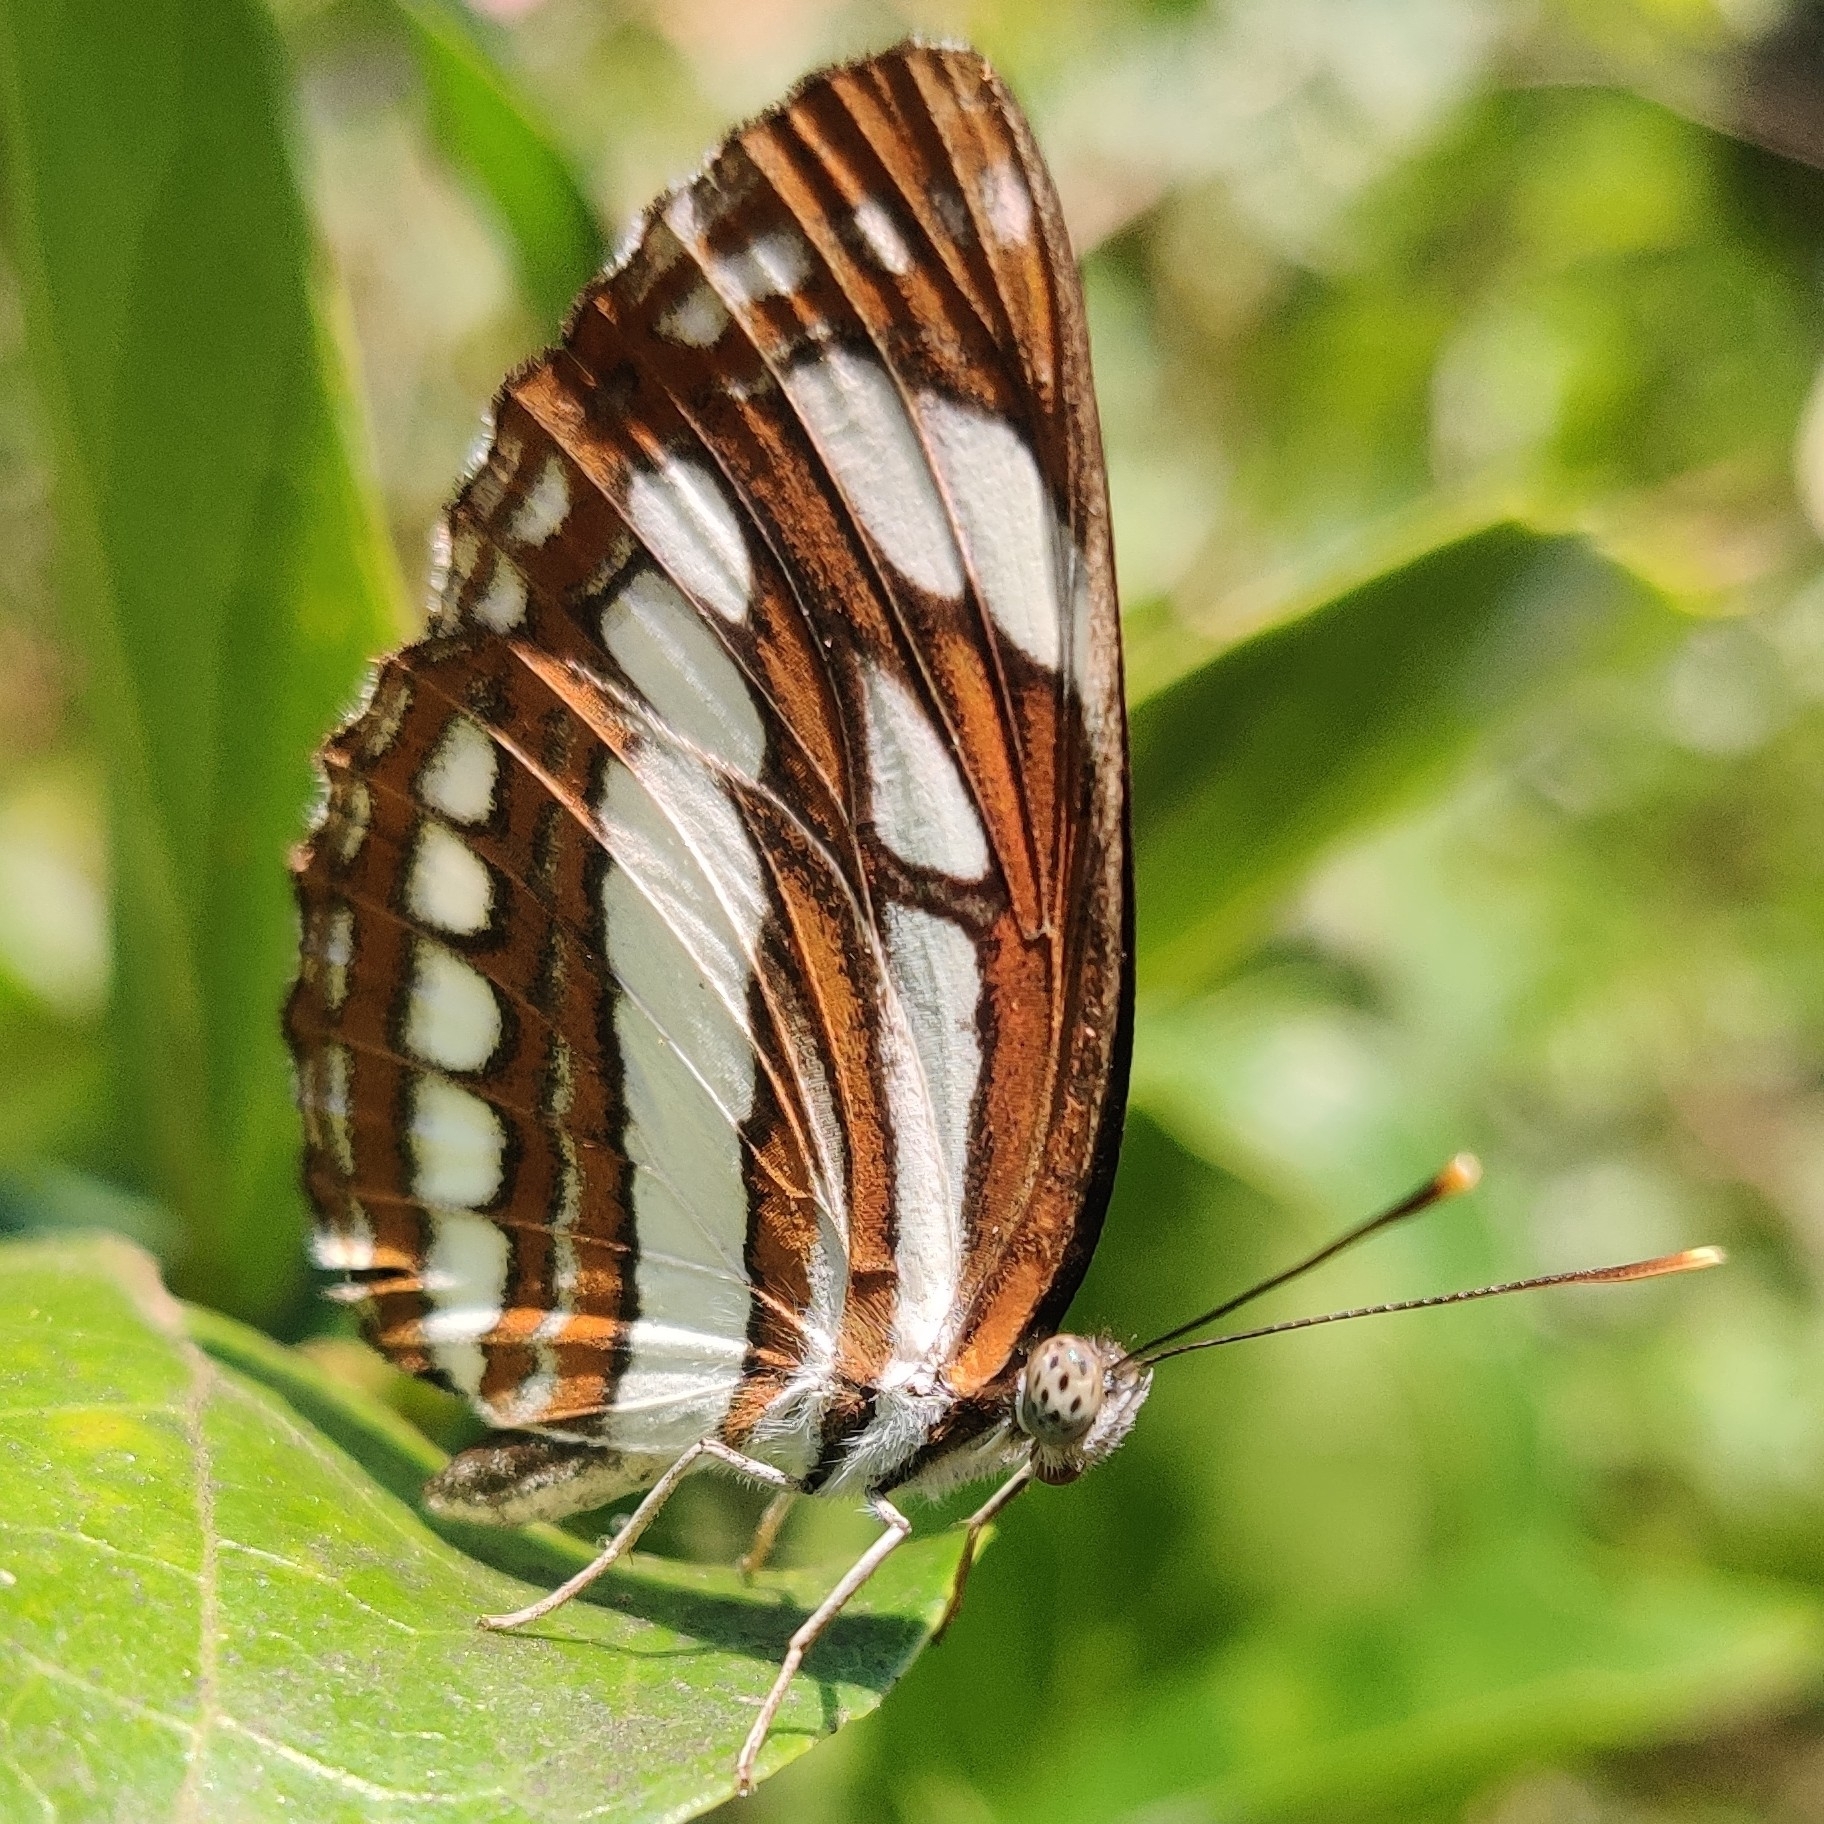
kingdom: Animalia
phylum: Arthropoda
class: Insecta
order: Lepidoptera
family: Nymphalidae
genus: Neptis
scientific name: Neptis hylas
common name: Common sailer
